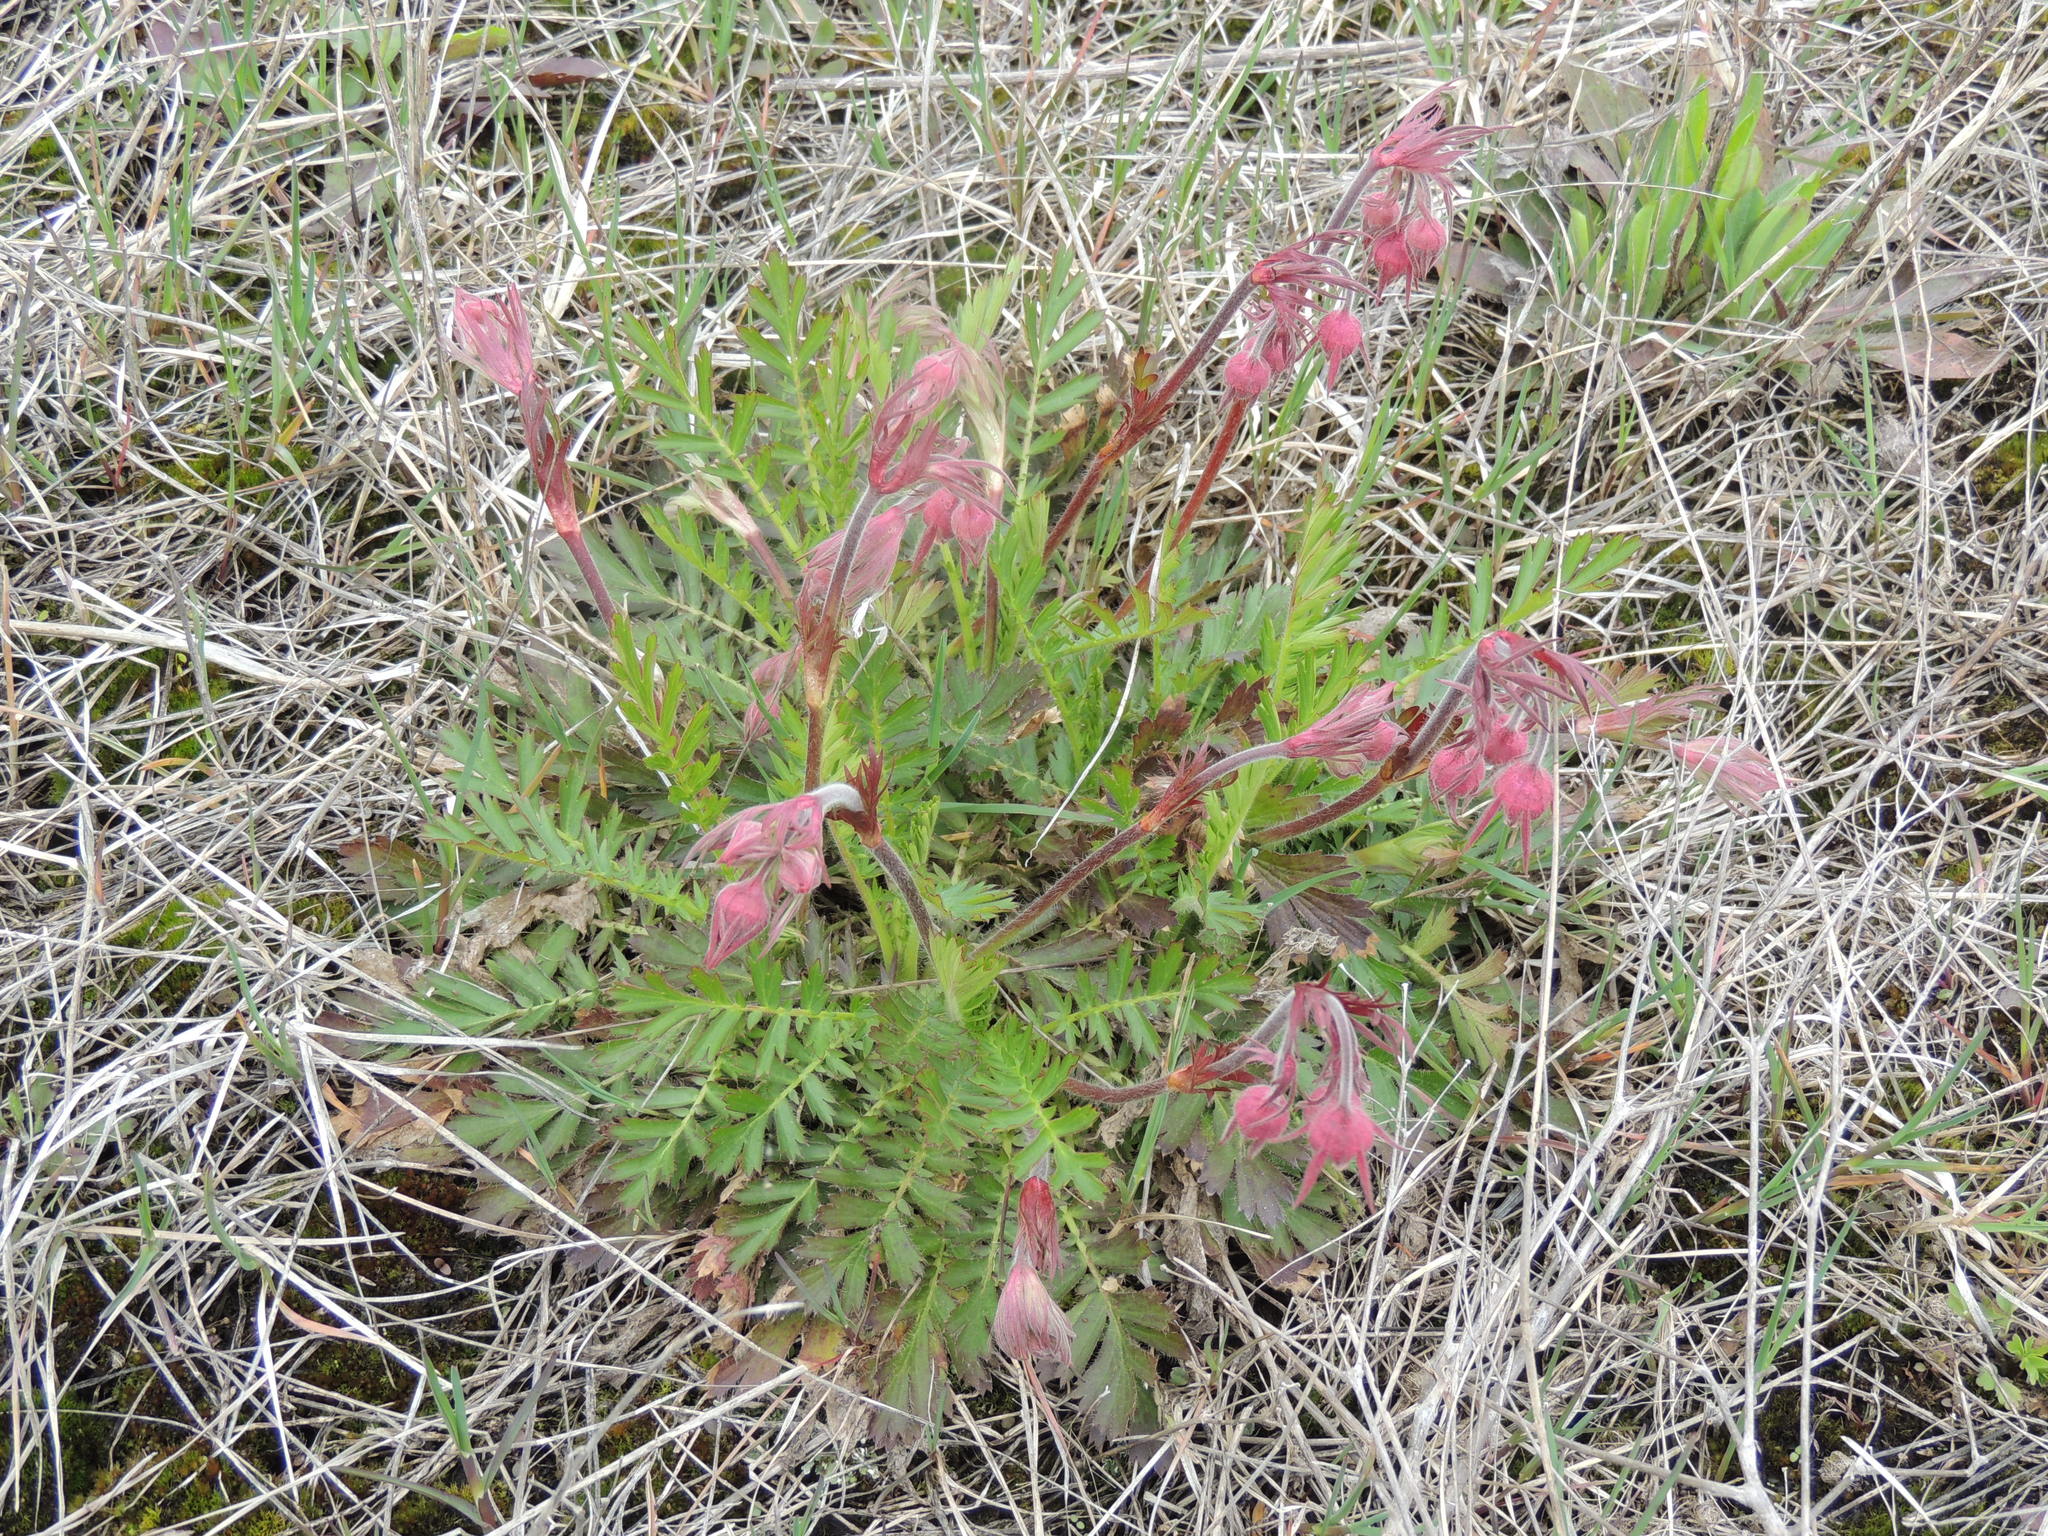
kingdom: Plantae
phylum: Tracheophyta
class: Magnoliopsida
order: Rosales
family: Rosaceae
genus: Geum
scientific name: Geum triflorum
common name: Old man's whiskers
